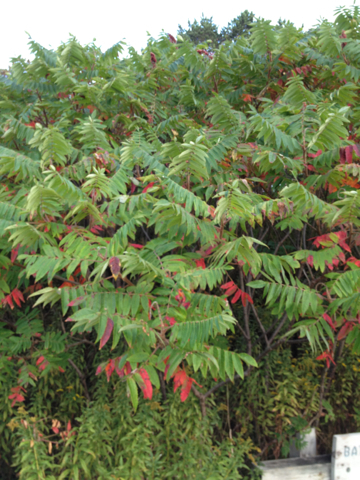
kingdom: Plantae
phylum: Tracheophyta
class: Magnoliopsida
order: Sapindales
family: Anacardiaceae
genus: Rhus
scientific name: Rhus typhina
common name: Staghorn sumac
